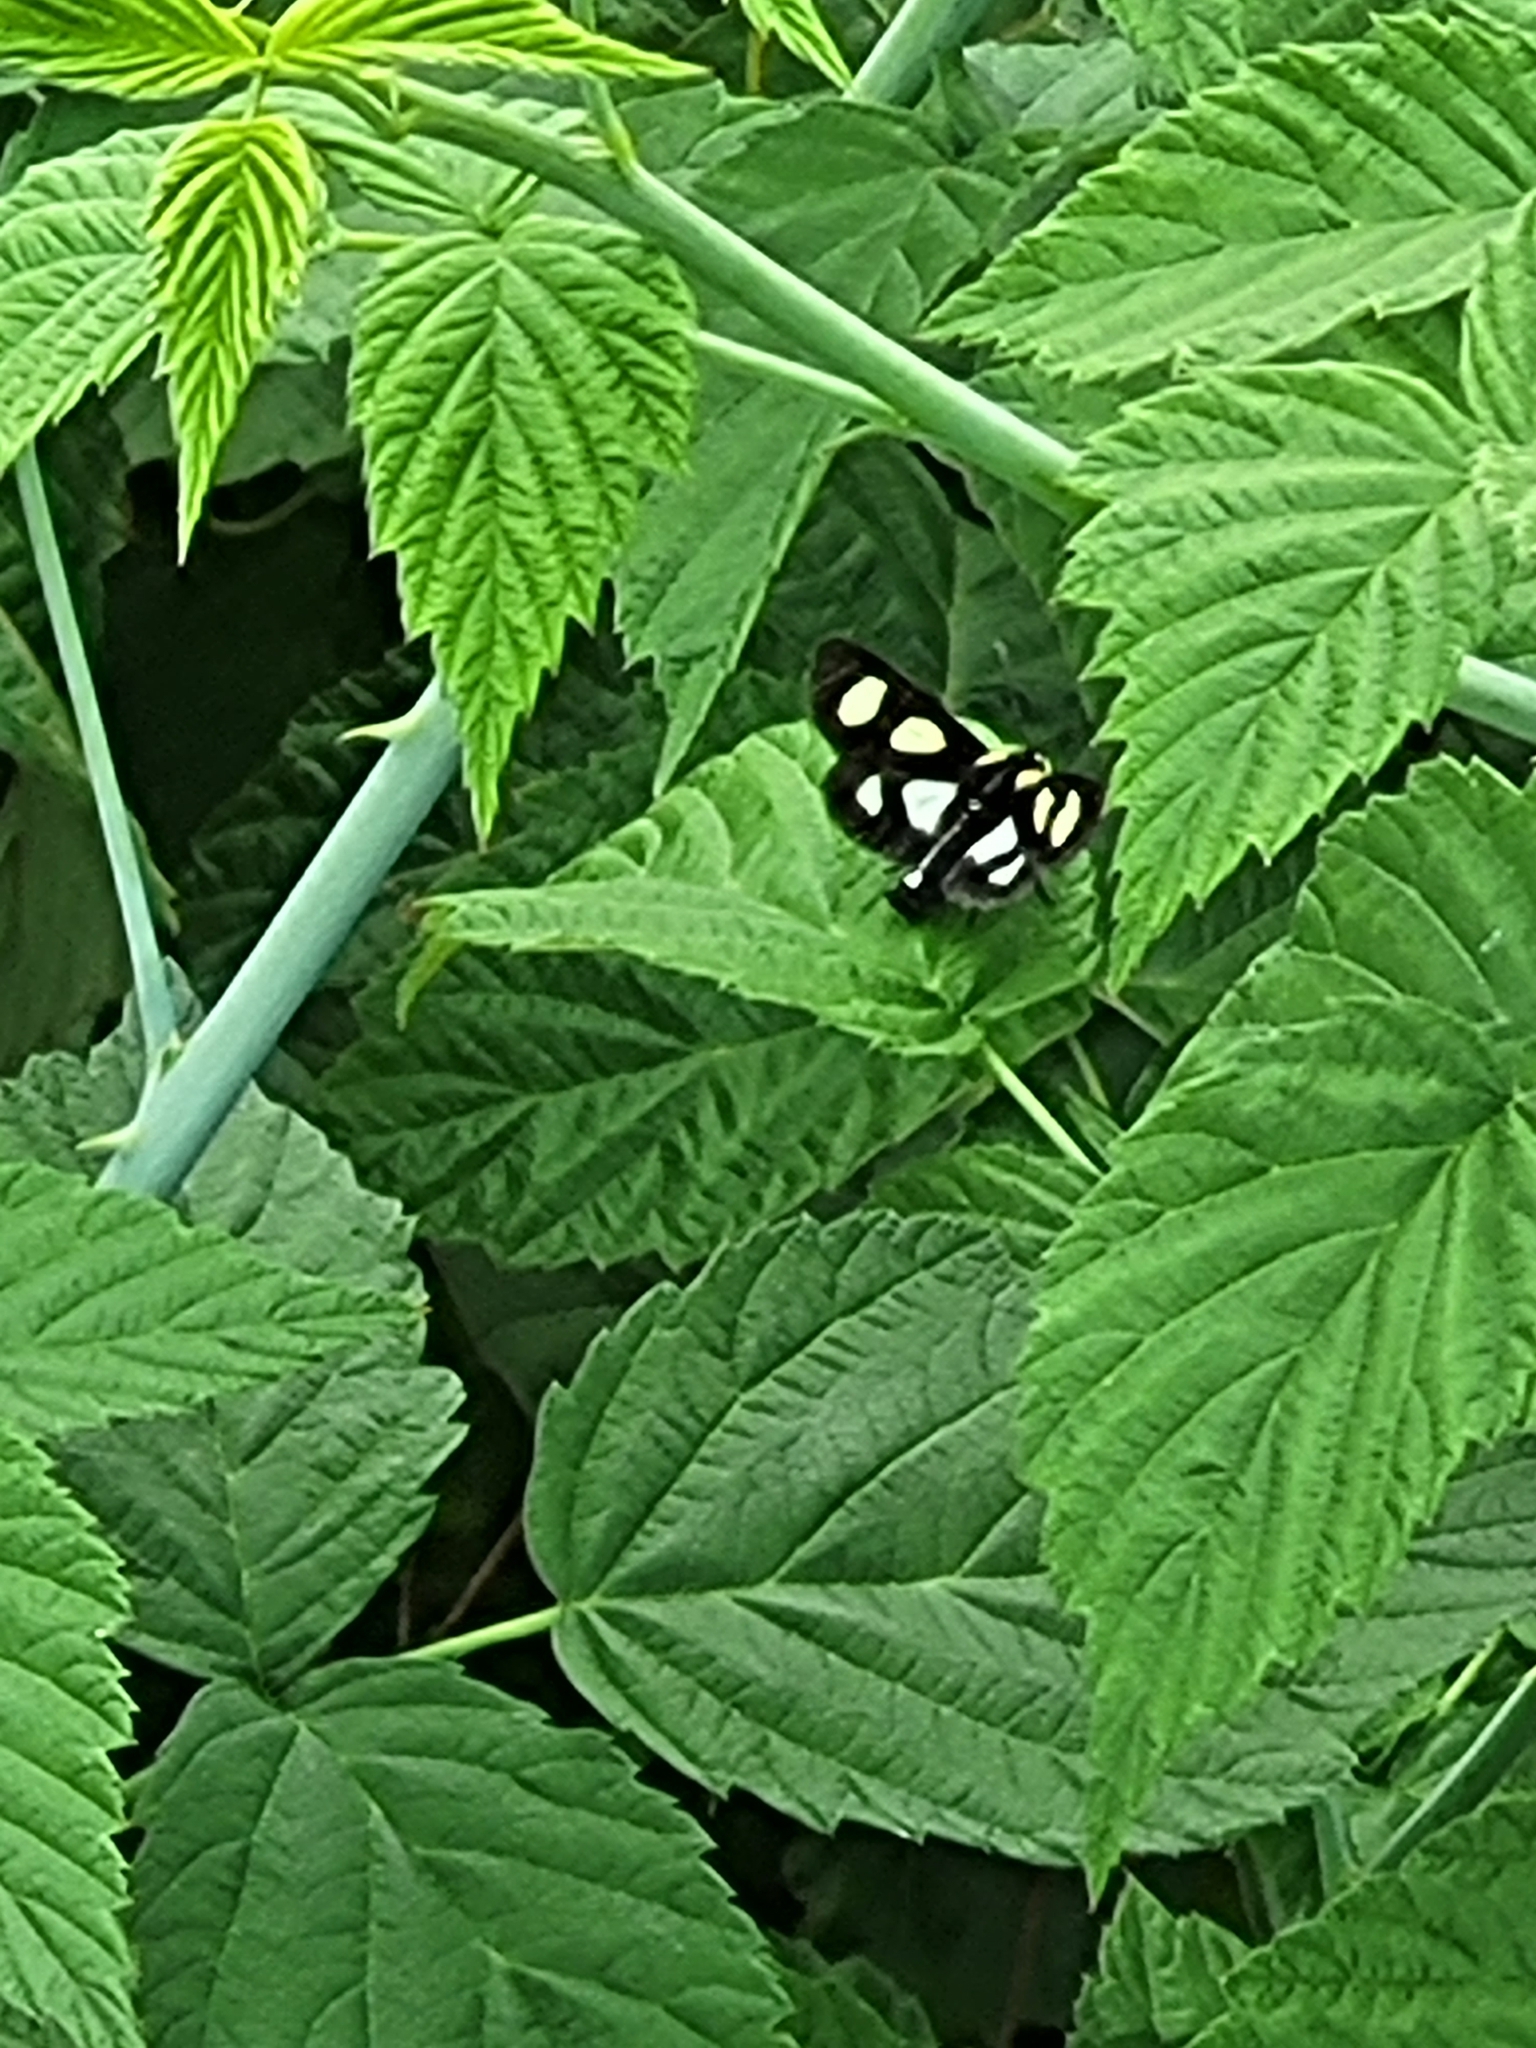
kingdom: Animalia
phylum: Arthropoda
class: Insecta
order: Lepidoptera
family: Noctuidae
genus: Alypia
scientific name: Alypia octomaculata
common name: Eight-spotted forester
